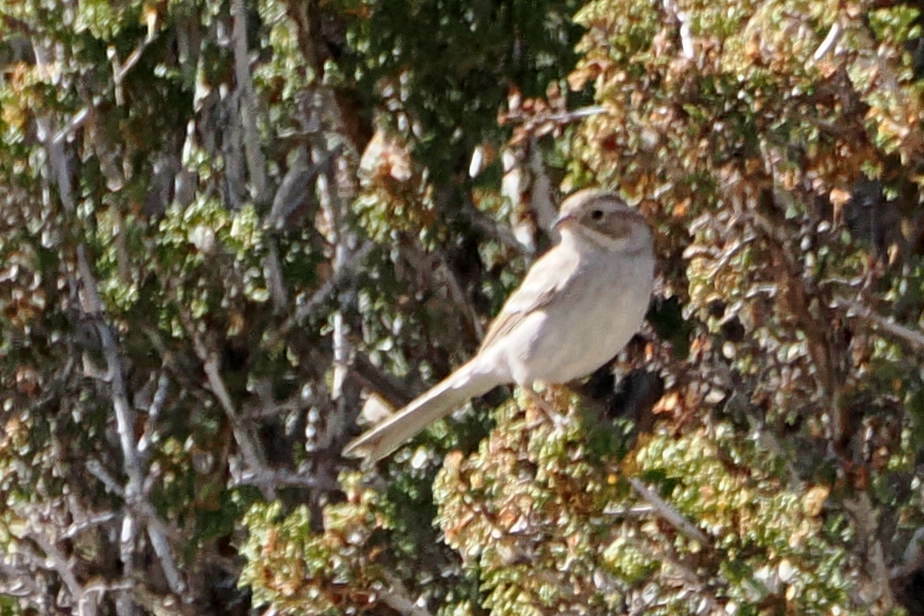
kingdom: Animalia
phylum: Chordata
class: Aves
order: Passeriformes
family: Passerellidae
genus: Spizella
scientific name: Spizella breweri
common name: Brewer's sparrow
